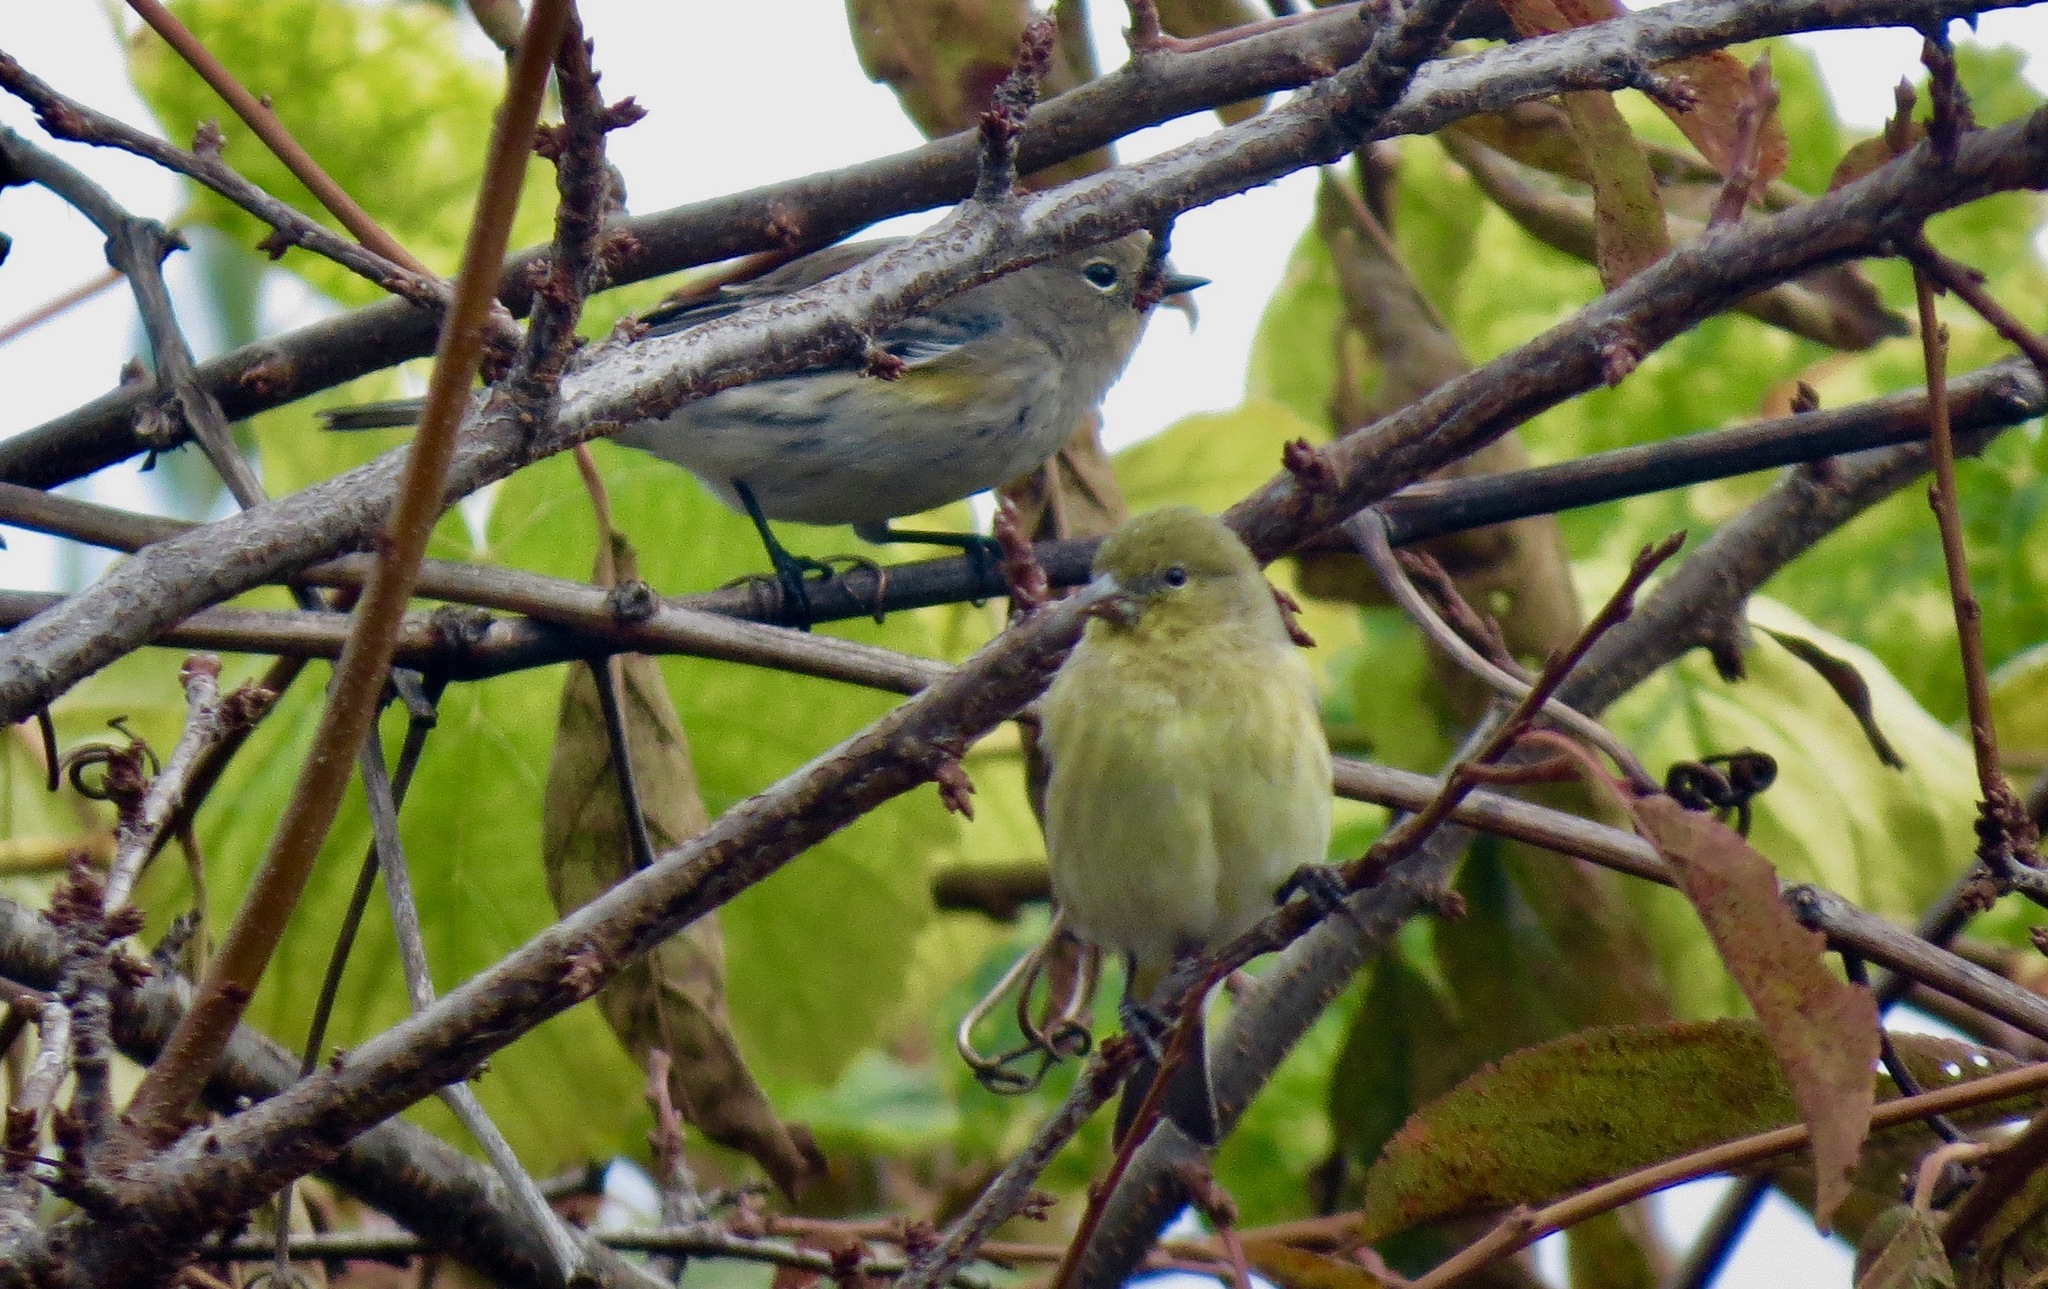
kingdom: Animalia
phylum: Chordata
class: Aves
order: Passeriformes
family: Parulidae
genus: Setophaga
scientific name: Setophaga coronata
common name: Myrtle warbler
